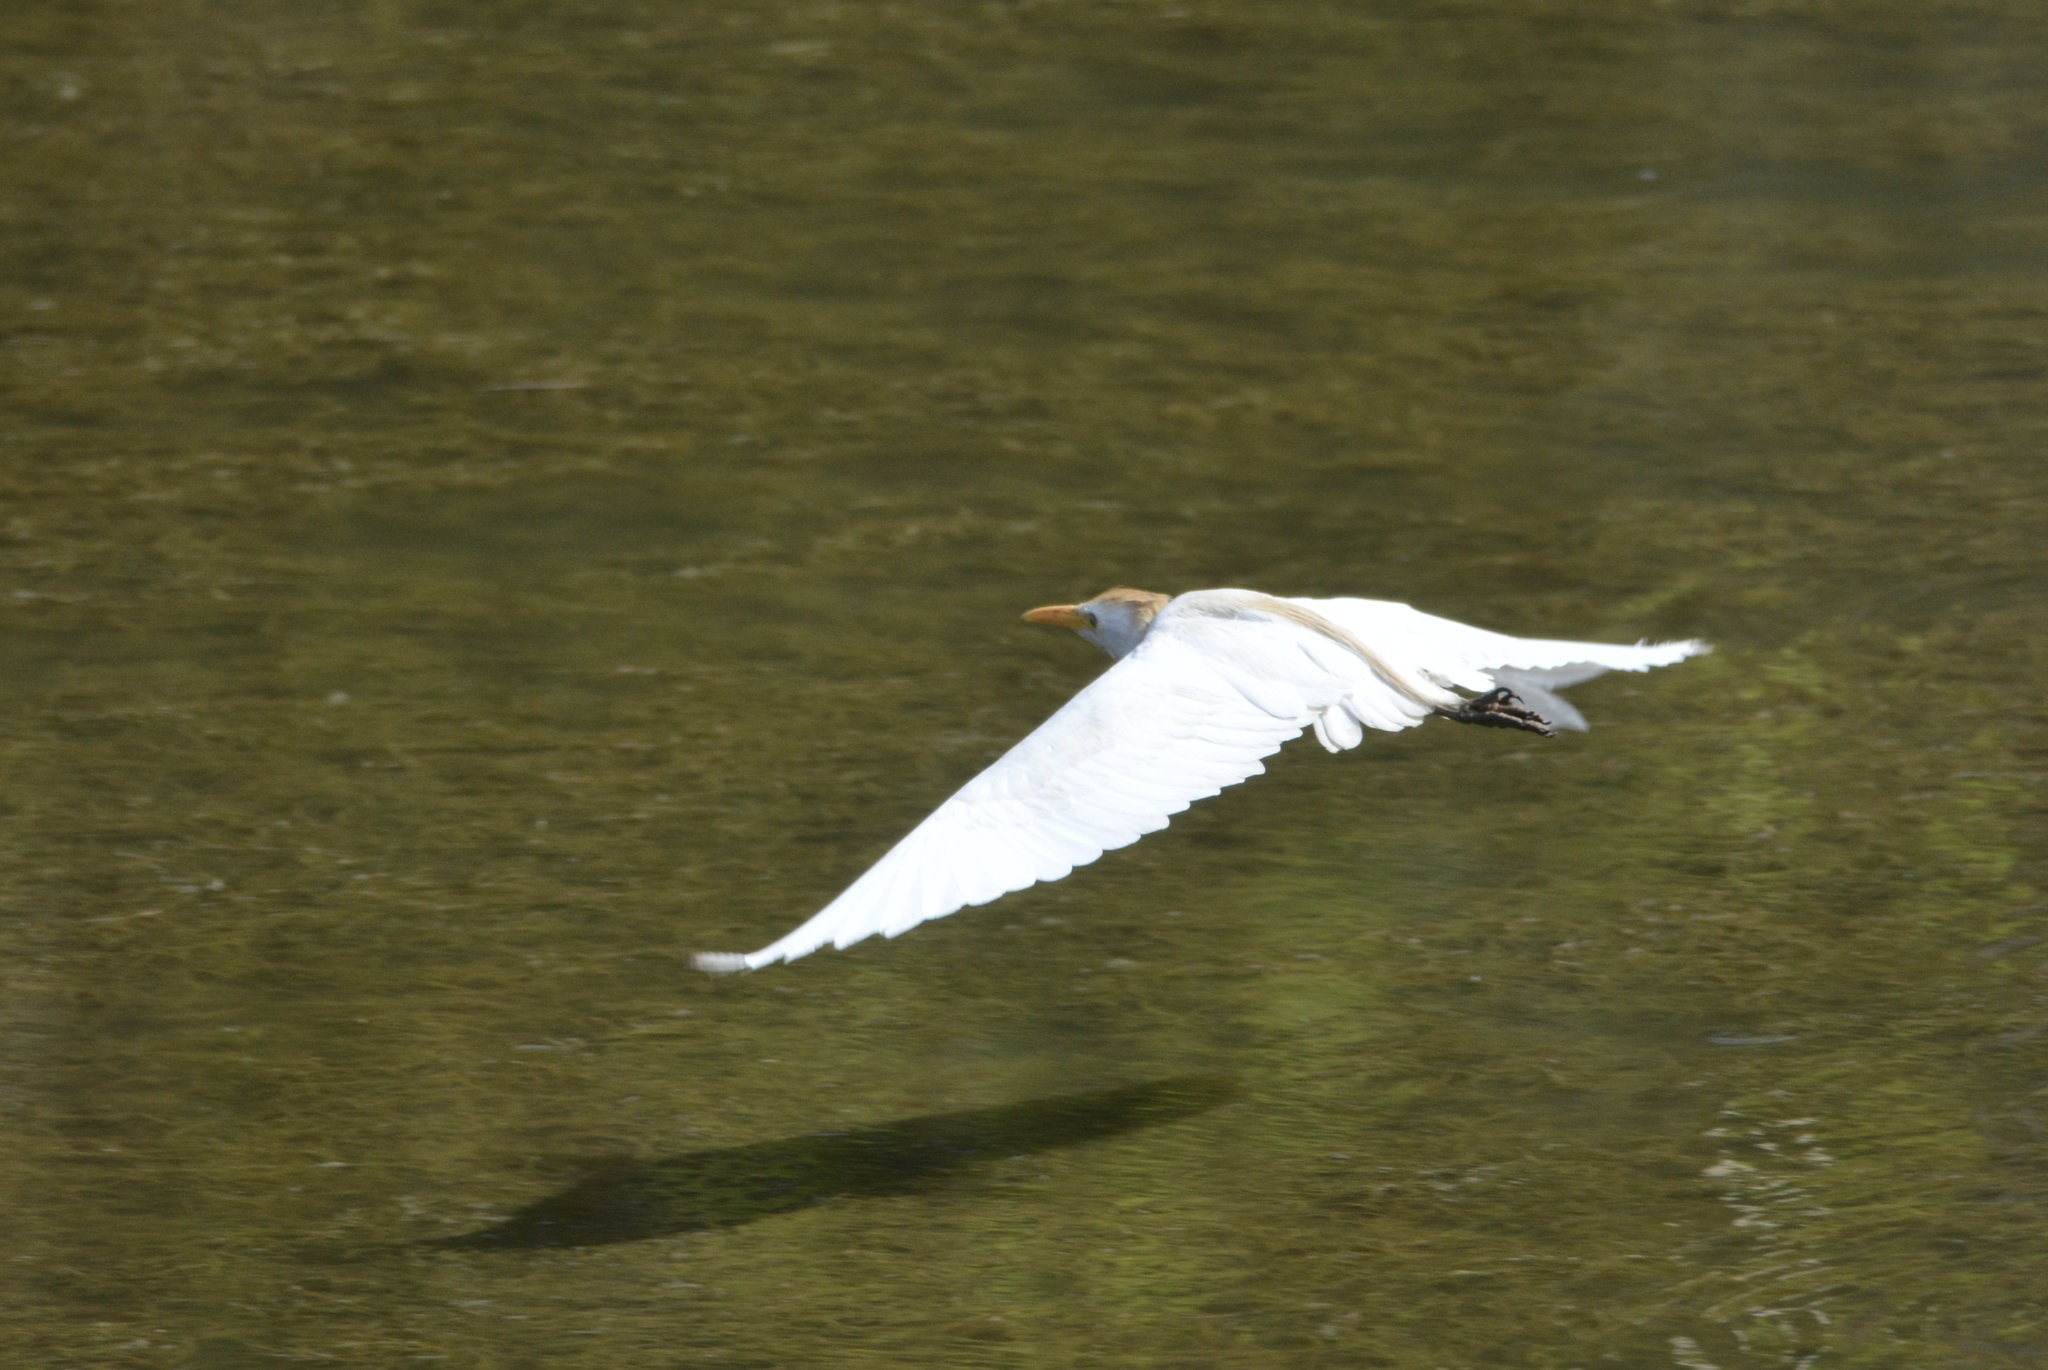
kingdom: Animalia
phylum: Chordata
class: Aves
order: Pelecaniformes
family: Ardeidae
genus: Bubulcus
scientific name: Bubulcus ibis
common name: Cattle egret
